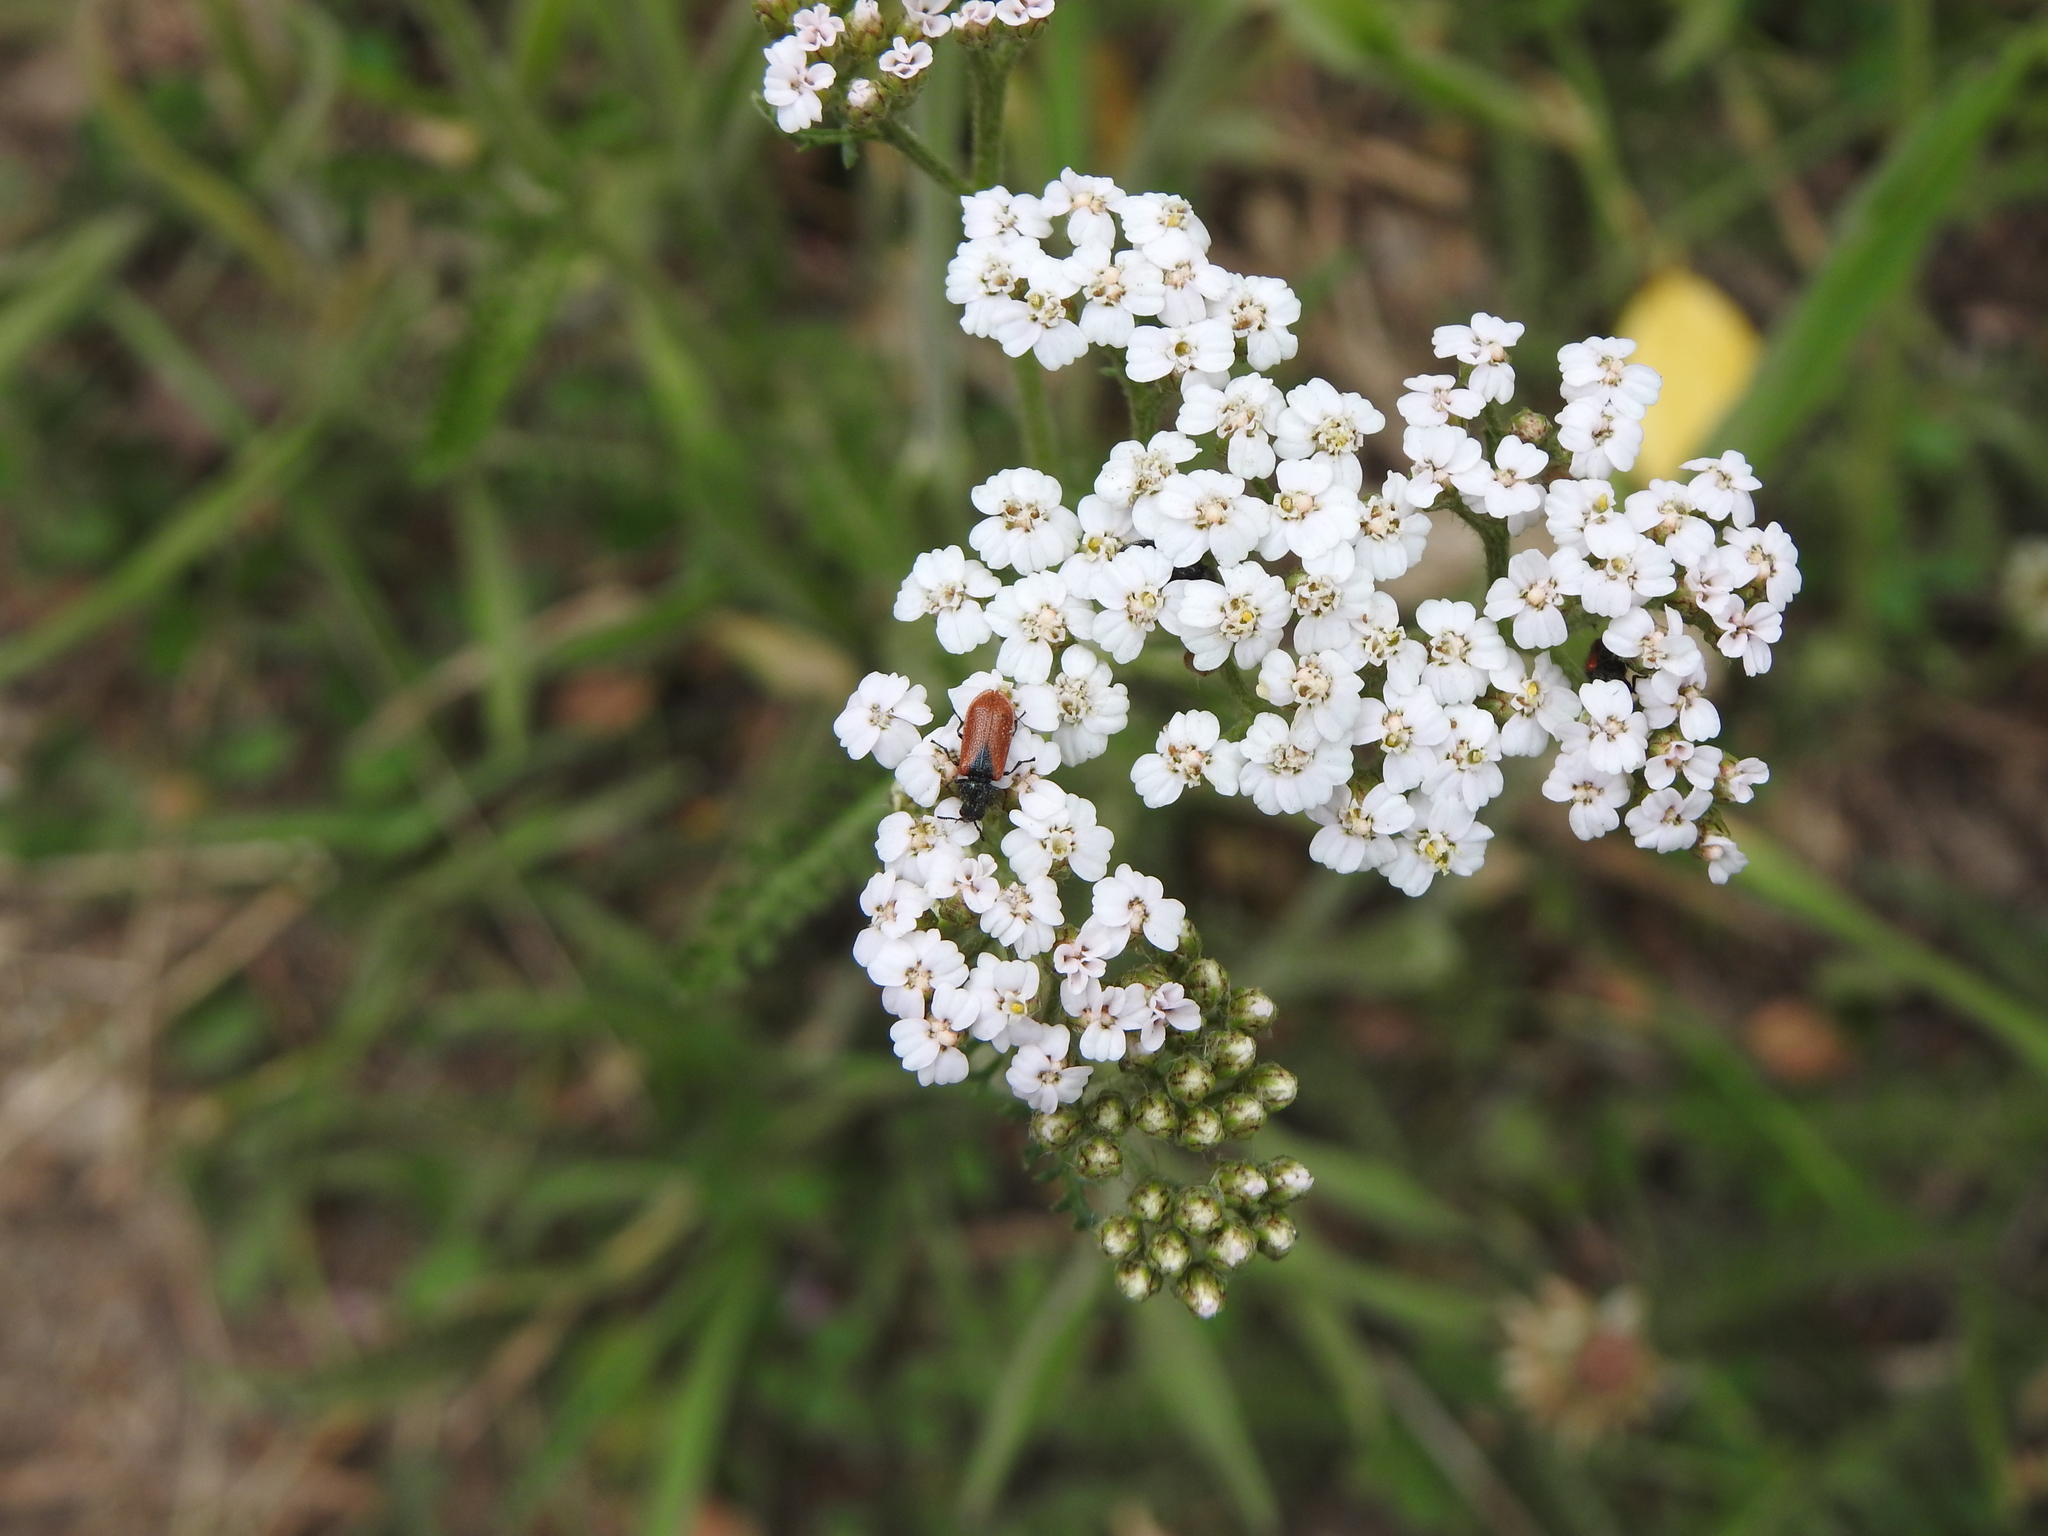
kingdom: Plantae
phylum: Tracheophyta
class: Magnoliopsida
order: Asterales
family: Asteraceae
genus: Achillea
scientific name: Achillea millefolium
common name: Yarrow
